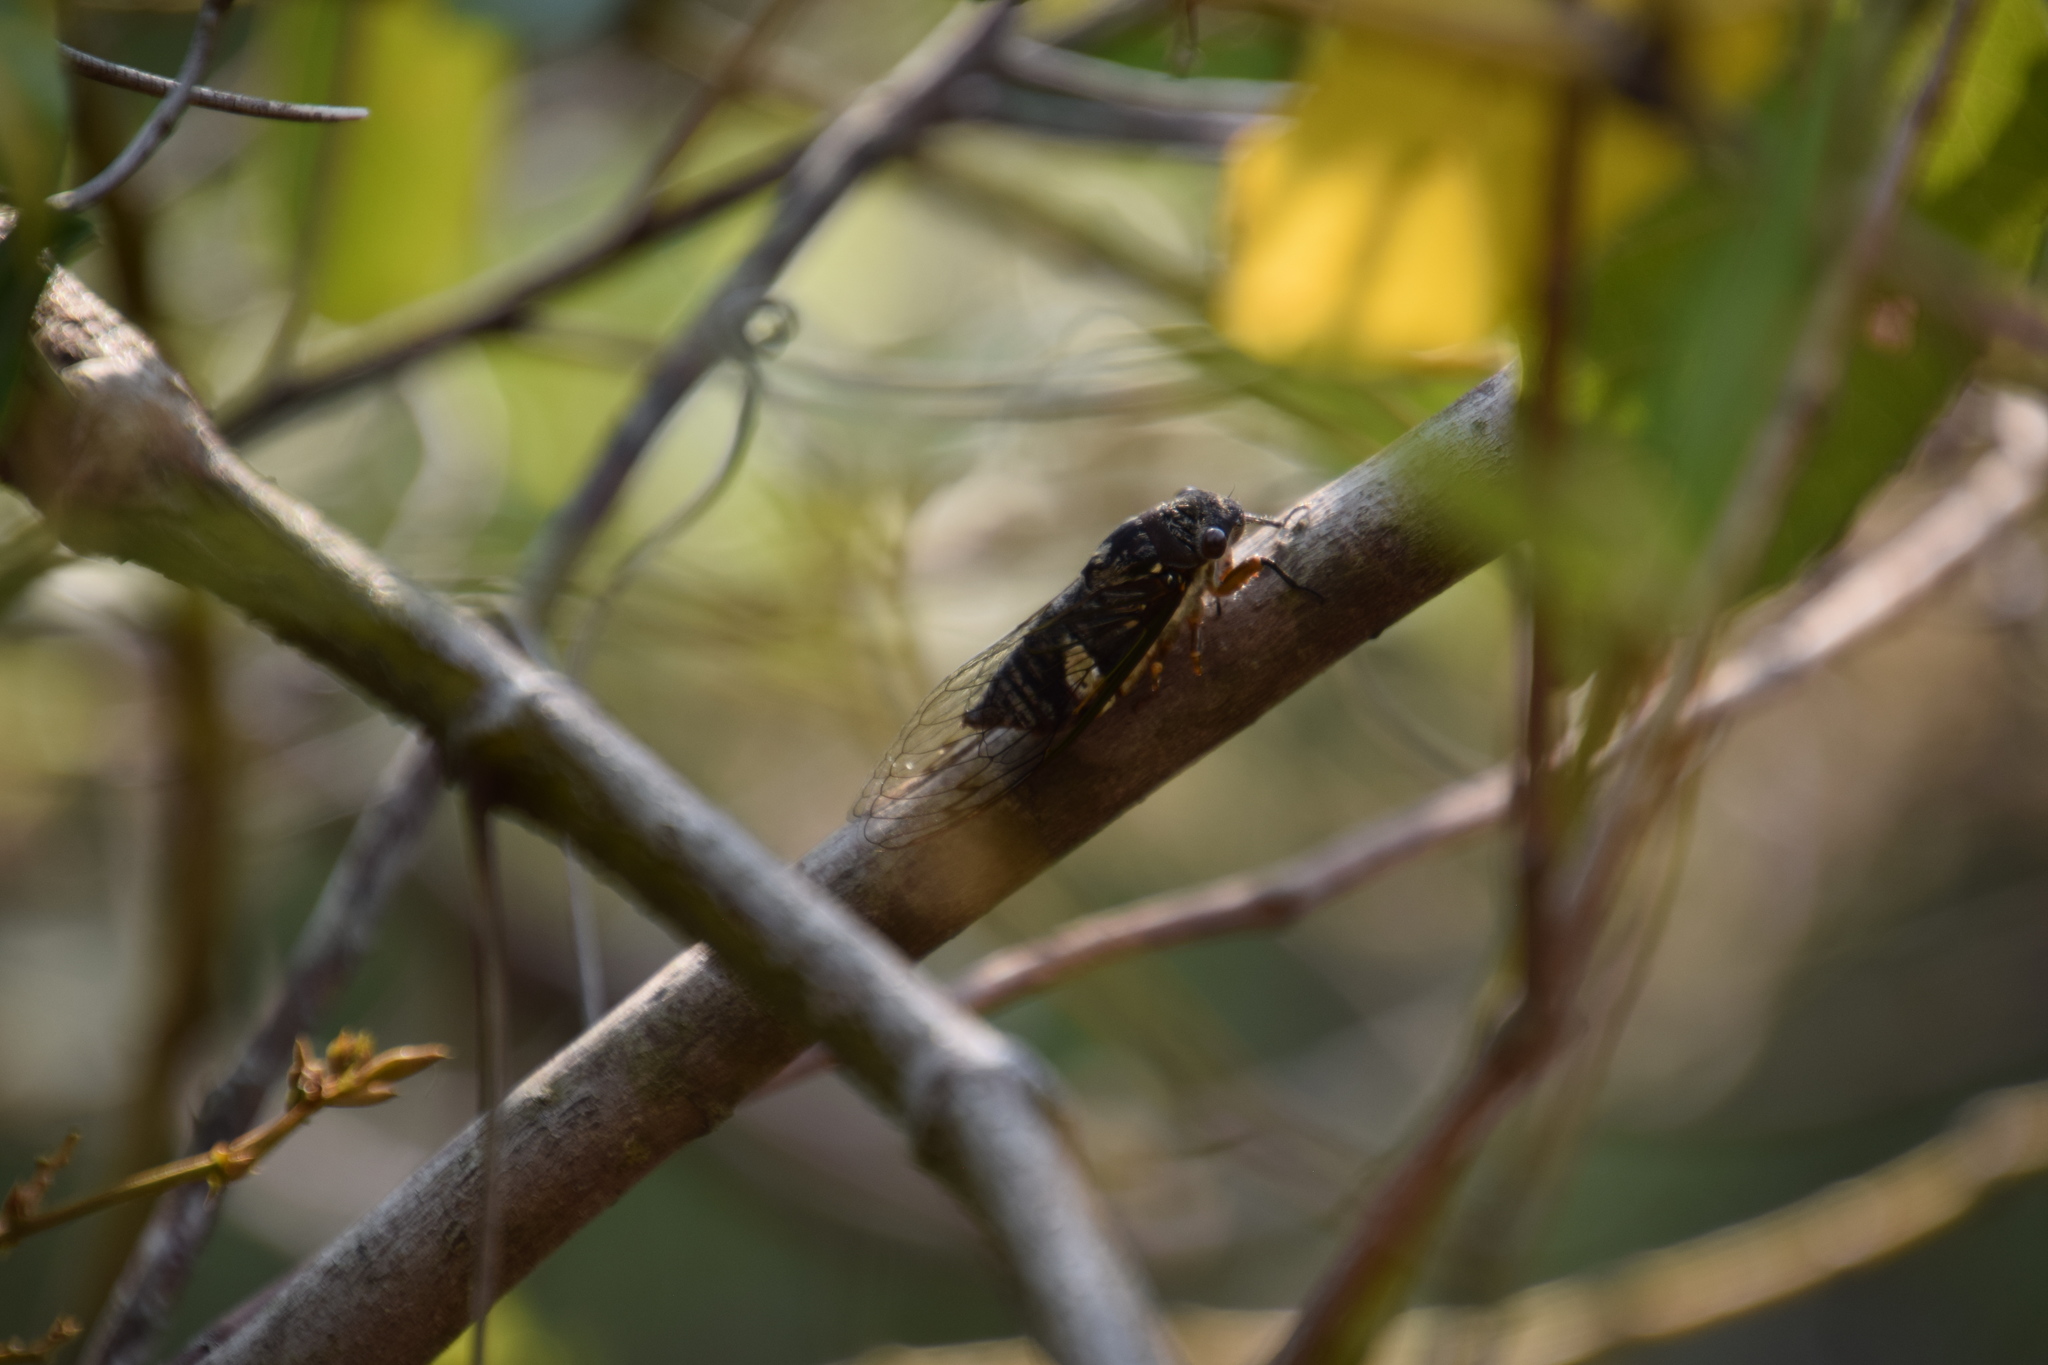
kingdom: Animalia
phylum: Arthropoda
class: Insecta
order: Hemiptera
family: Cicadidae
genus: Psaltoda
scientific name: Psaltoda plaga
